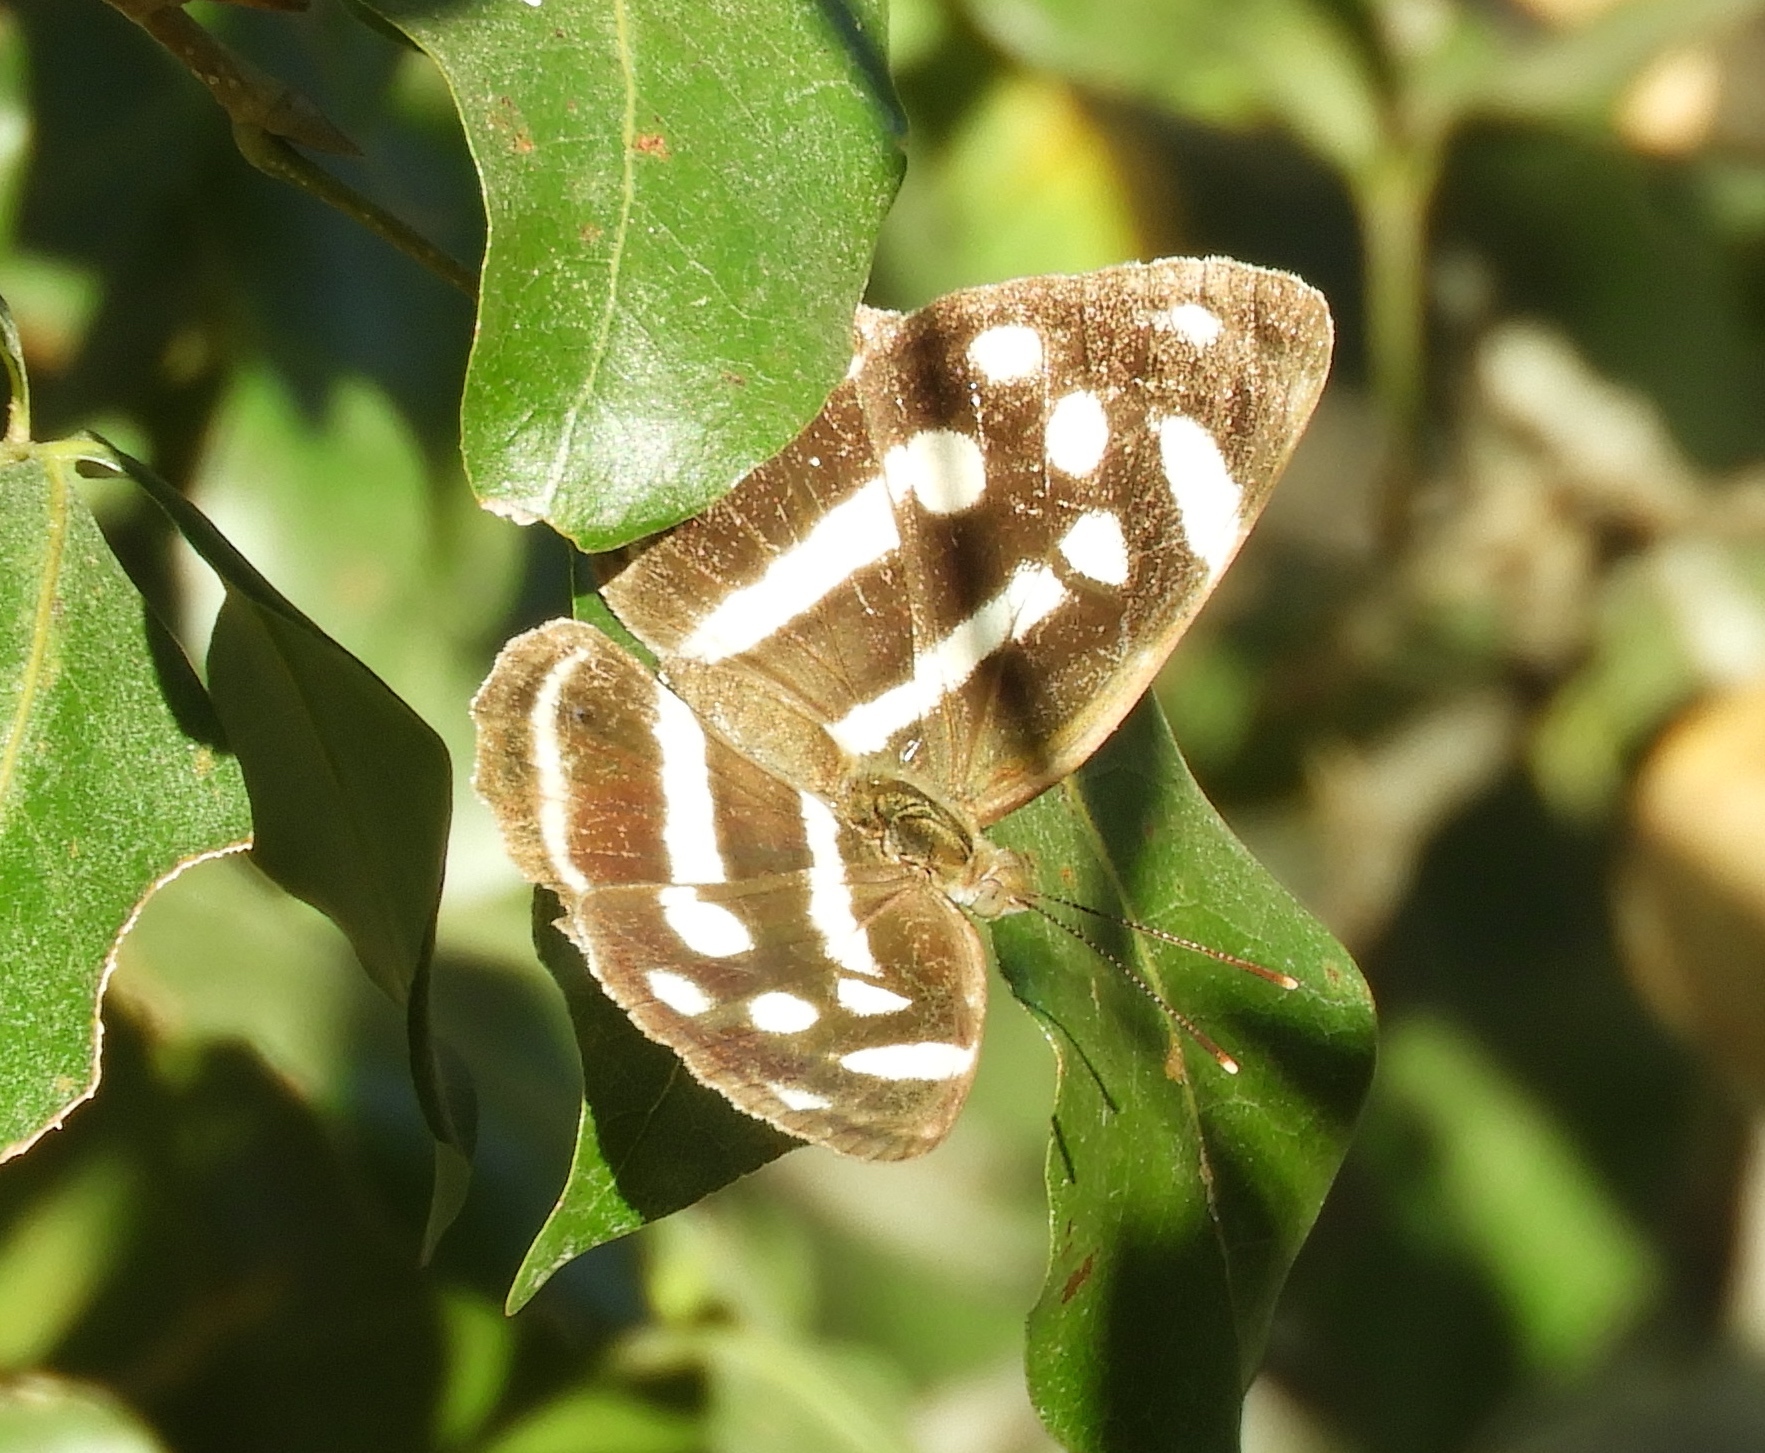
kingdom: Animalia
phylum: Arthropoda
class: Insecta
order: Lepidoptera
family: Nymphalidae
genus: Dynamine
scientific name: Dynamine mylitta
